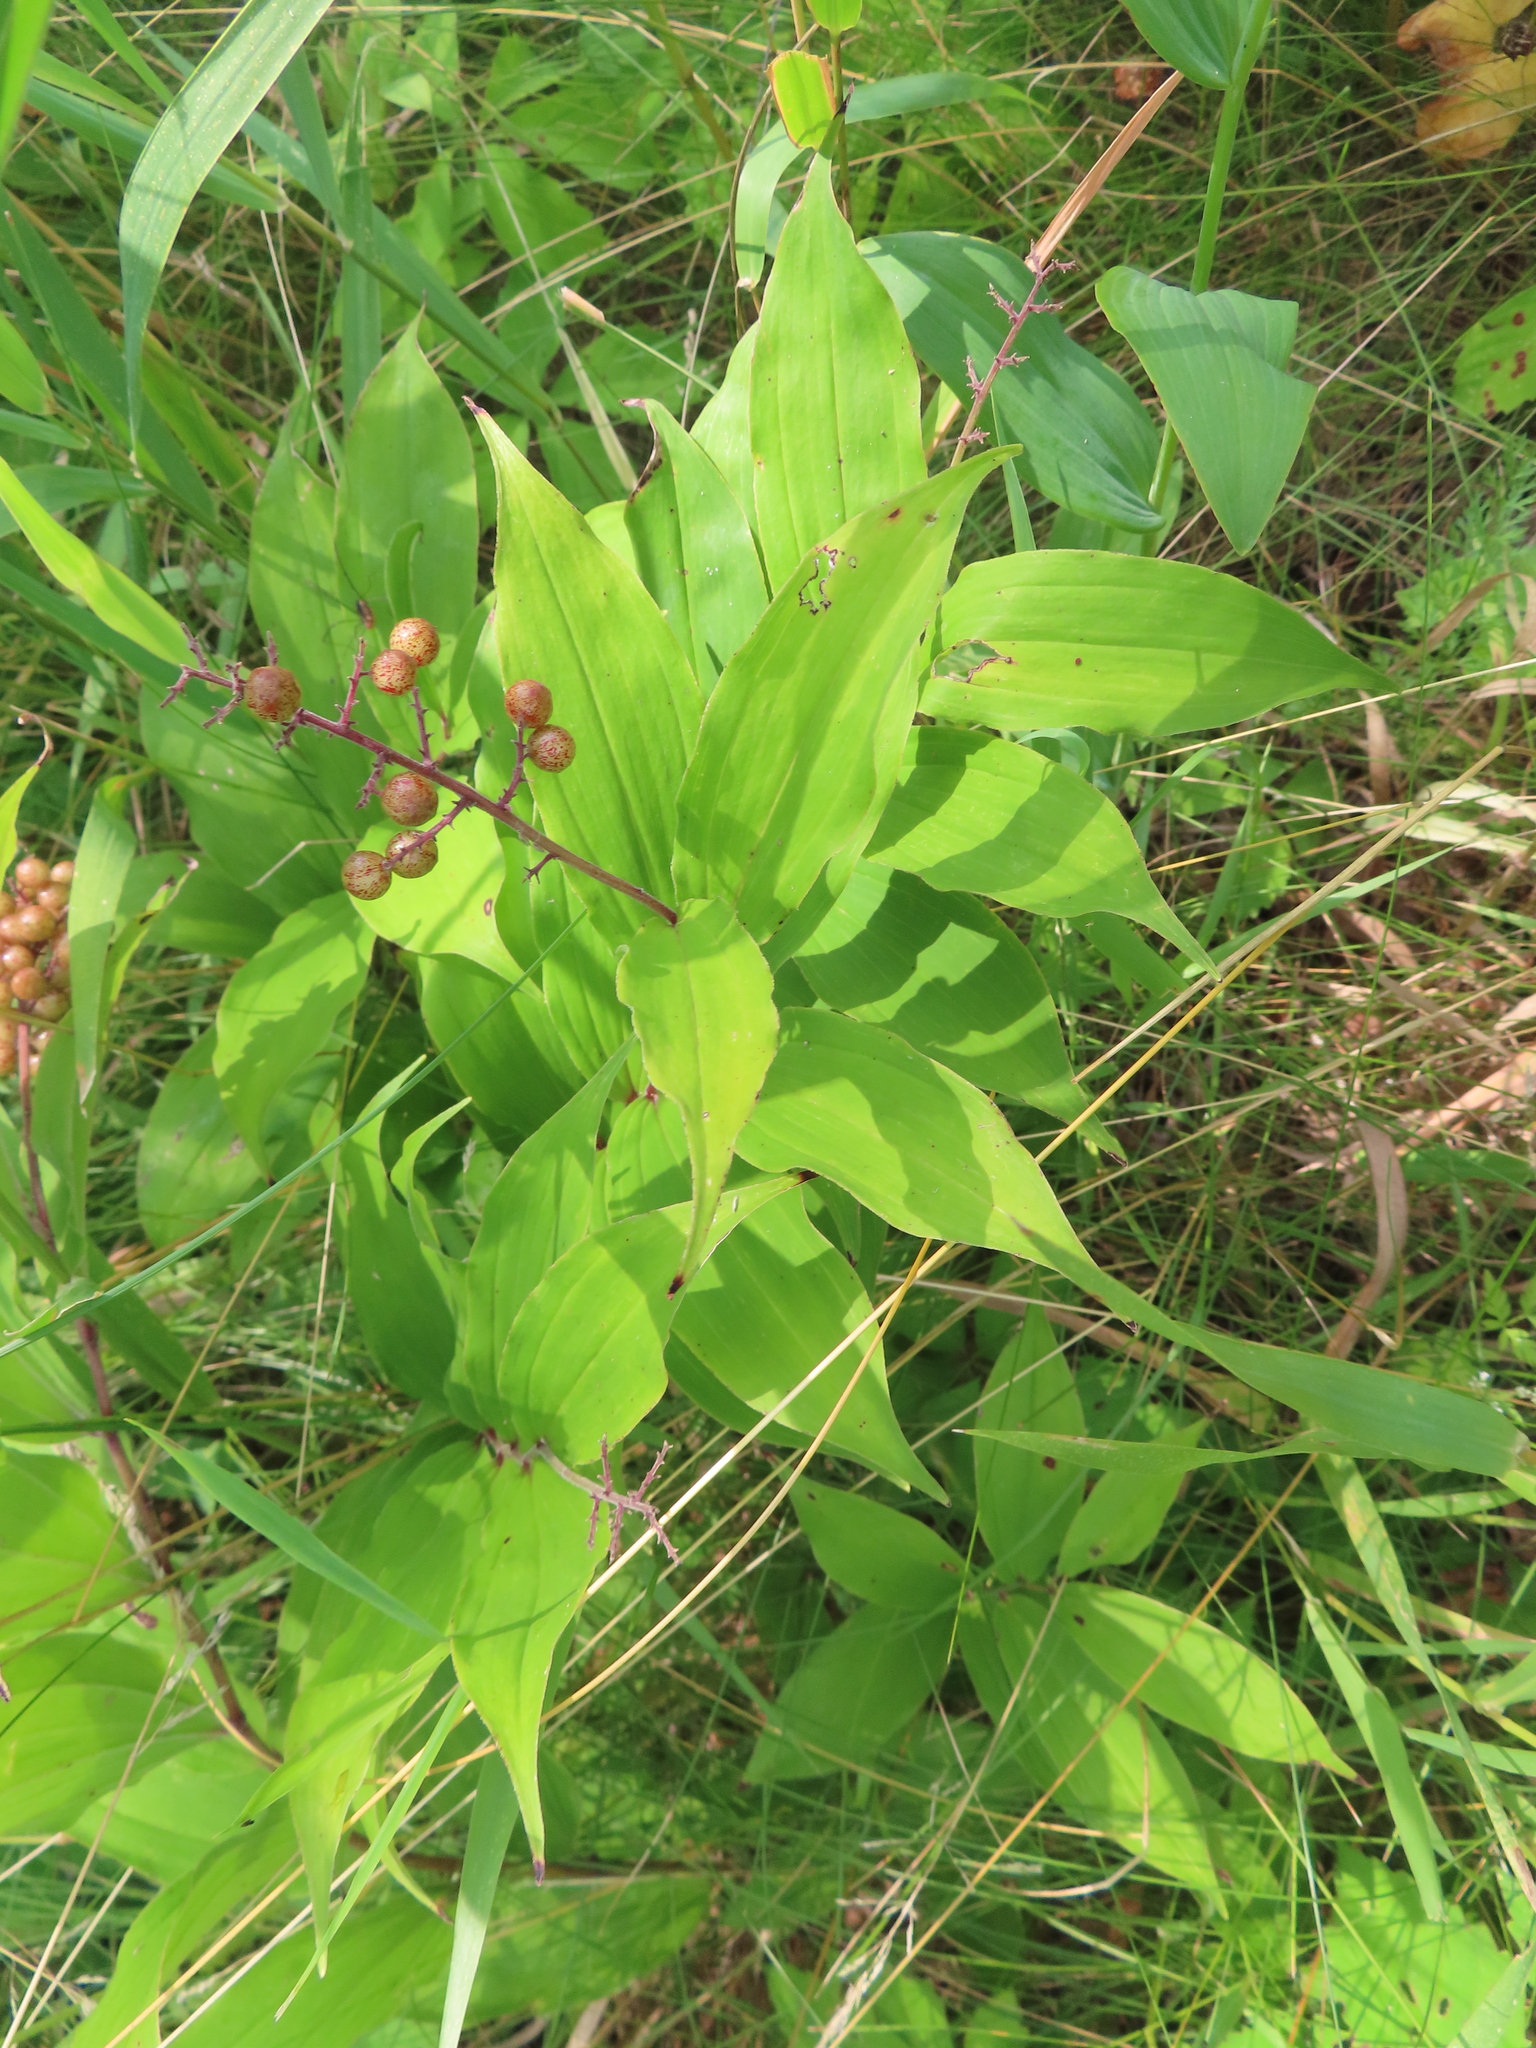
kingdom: Plantae
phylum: Tracheophyta
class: Liliopsida
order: Asparagales
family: Asparagaceae
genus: Maianthemum
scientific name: Maianthemum racemosum
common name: False spikenard
